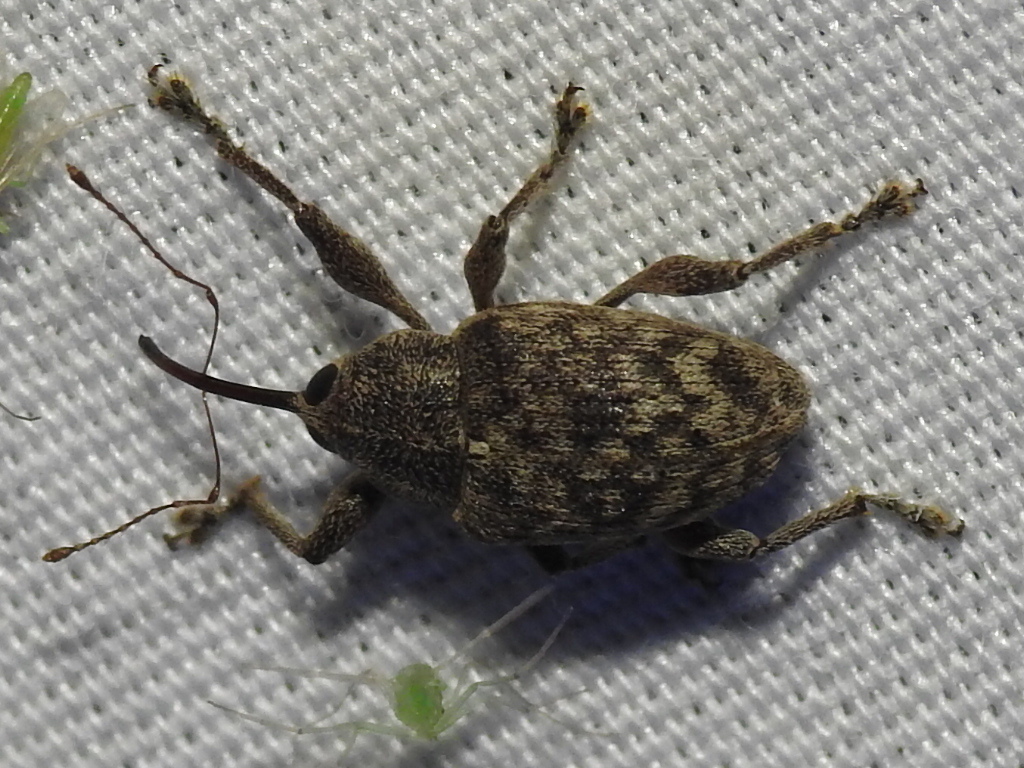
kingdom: Animalia
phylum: Arthropoda
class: Insecta
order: Coleoptera
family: Curculionidae
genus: Curculio
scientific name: Curculio
